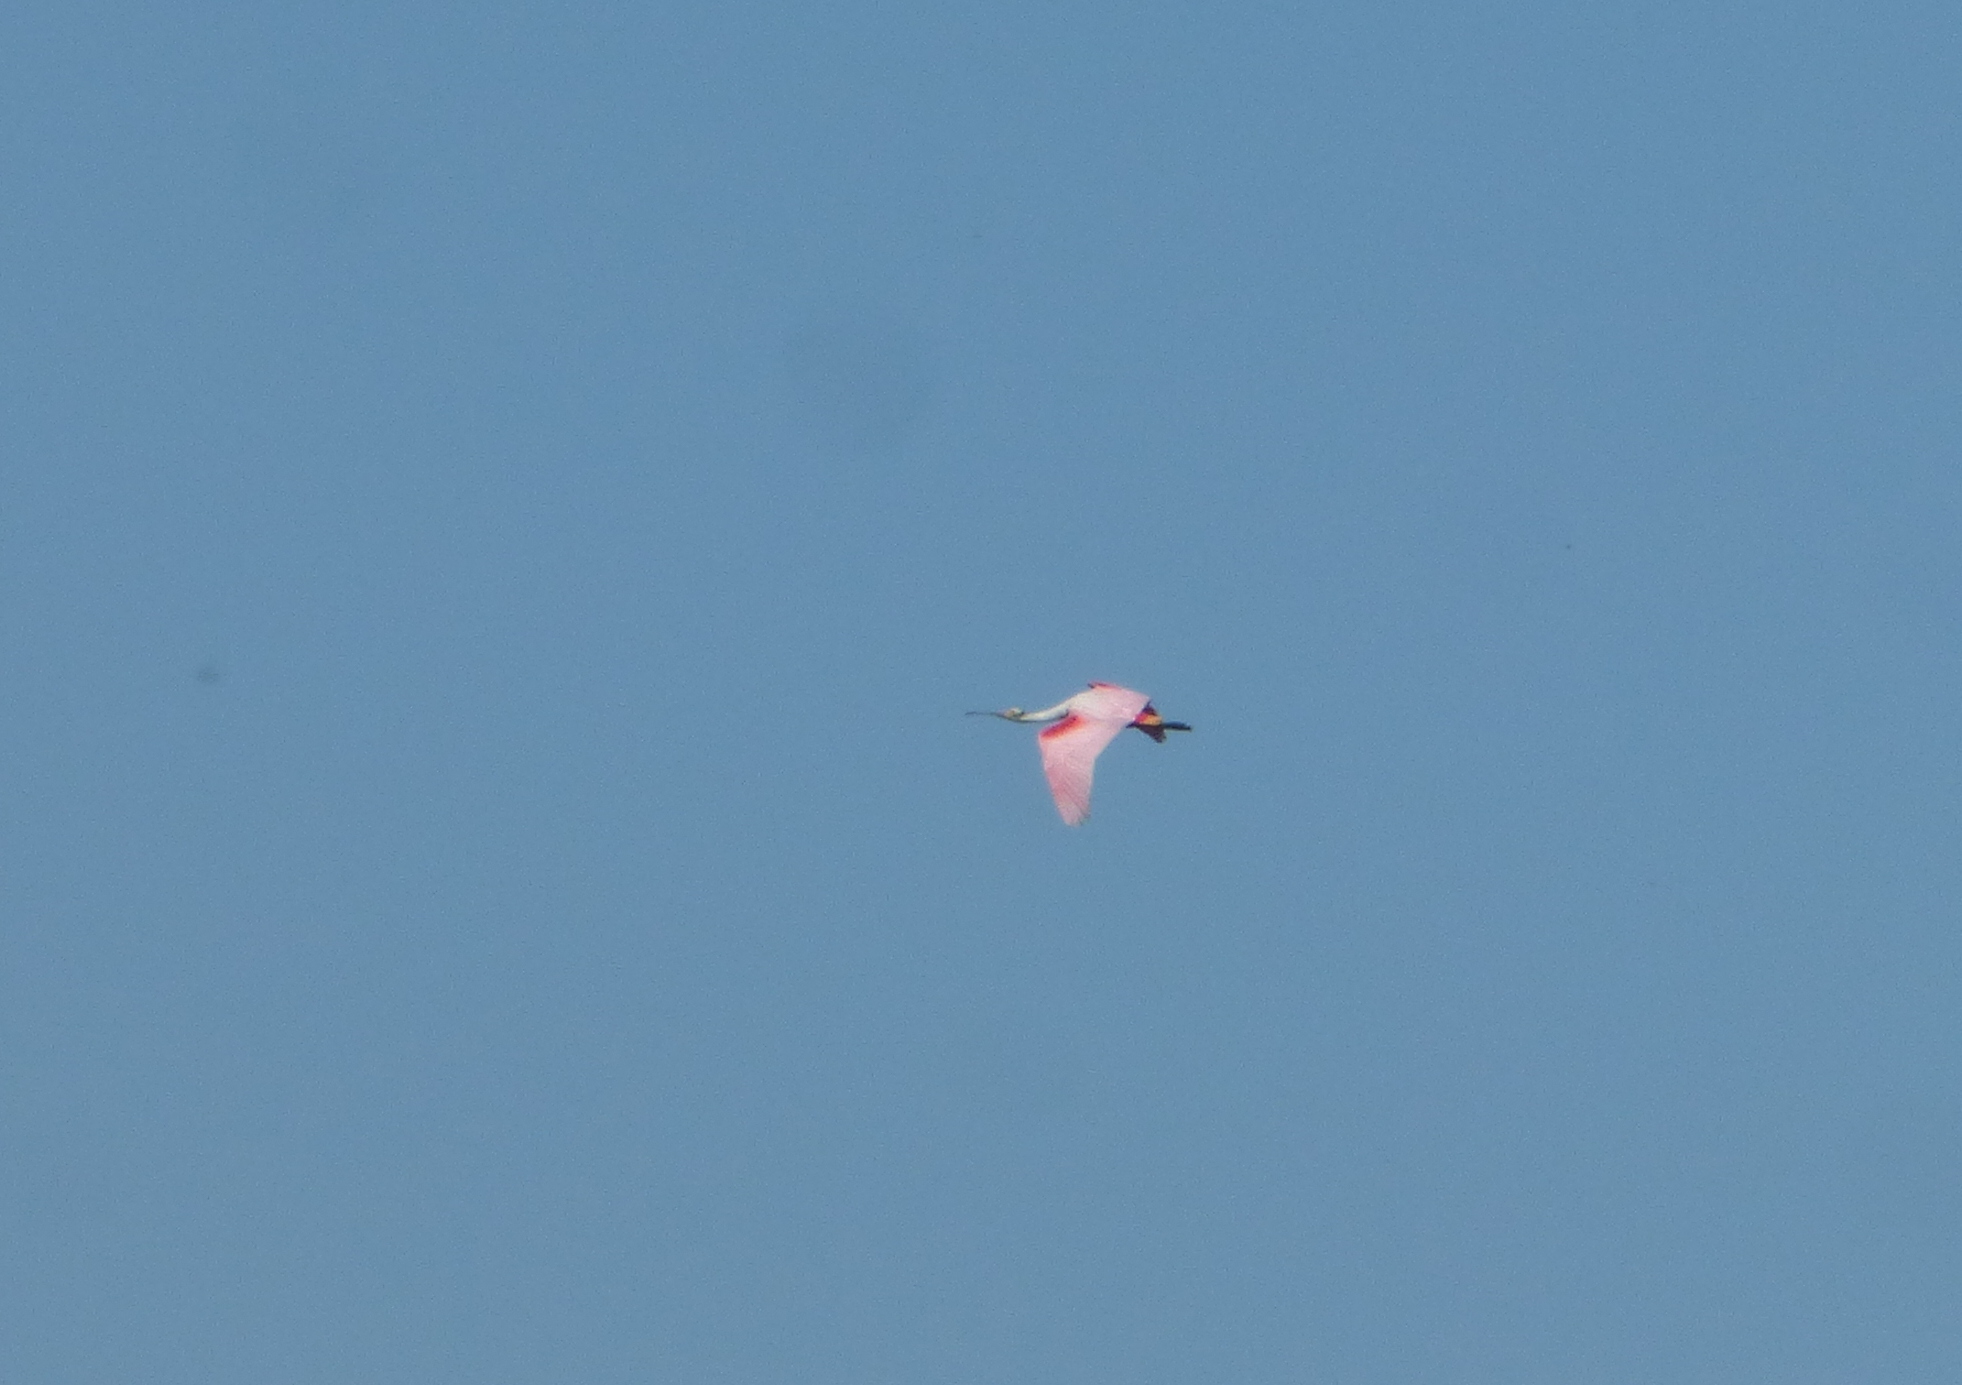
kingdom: Animalia
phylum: Chordata
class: Aves
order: Pelecaniformes
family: Threskiornithidae
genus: Platalea
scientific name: Platalea ajaja
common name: Roseate spoonbill
